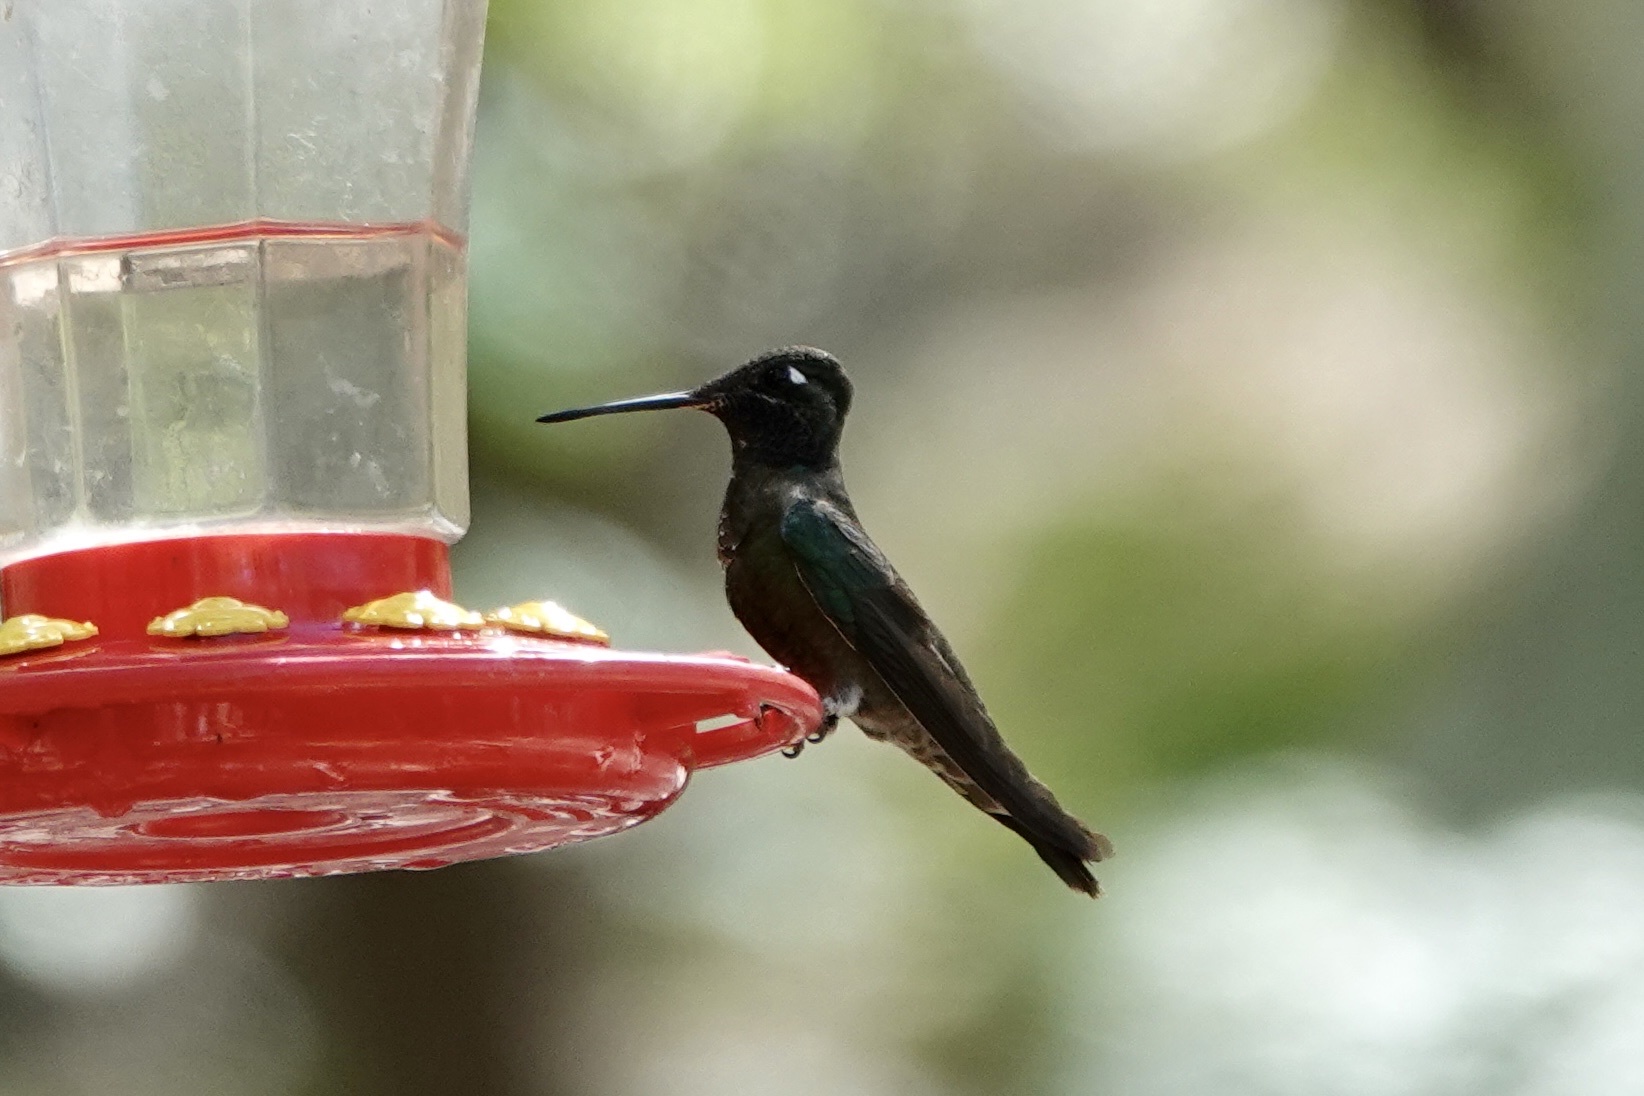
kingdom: Animalia
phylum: Chordata
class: Aves
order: Apodiformes
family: Trochilidae
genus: Eugenes
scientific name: Eugenes fulgens
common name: Magnificent hummingbird
